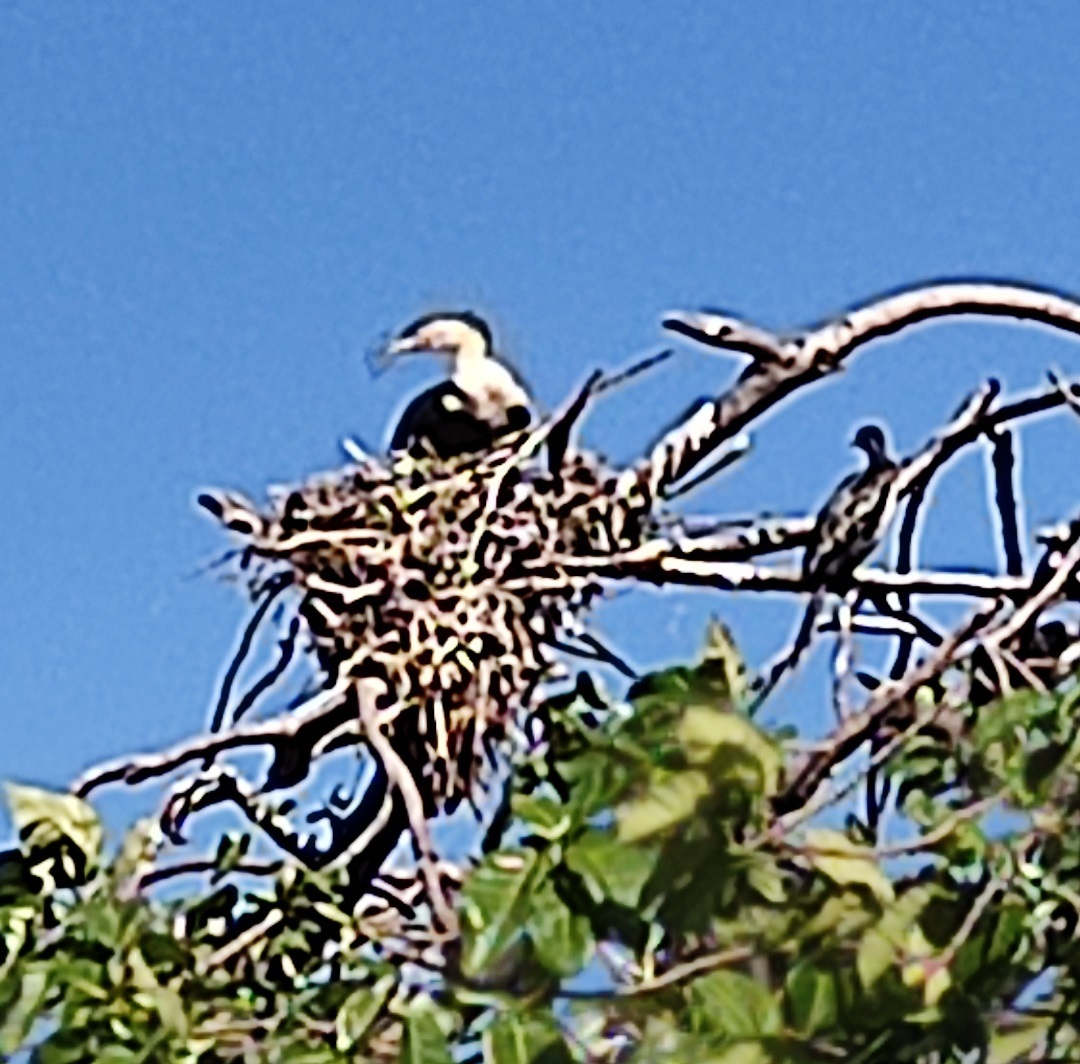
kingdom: Animalia
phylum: Chordata
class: Aves
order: Suliformes
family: Phalacrocoracidae
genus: Phalacrocorax
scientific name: Phalacrocorax carbo
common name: Great cormorant
